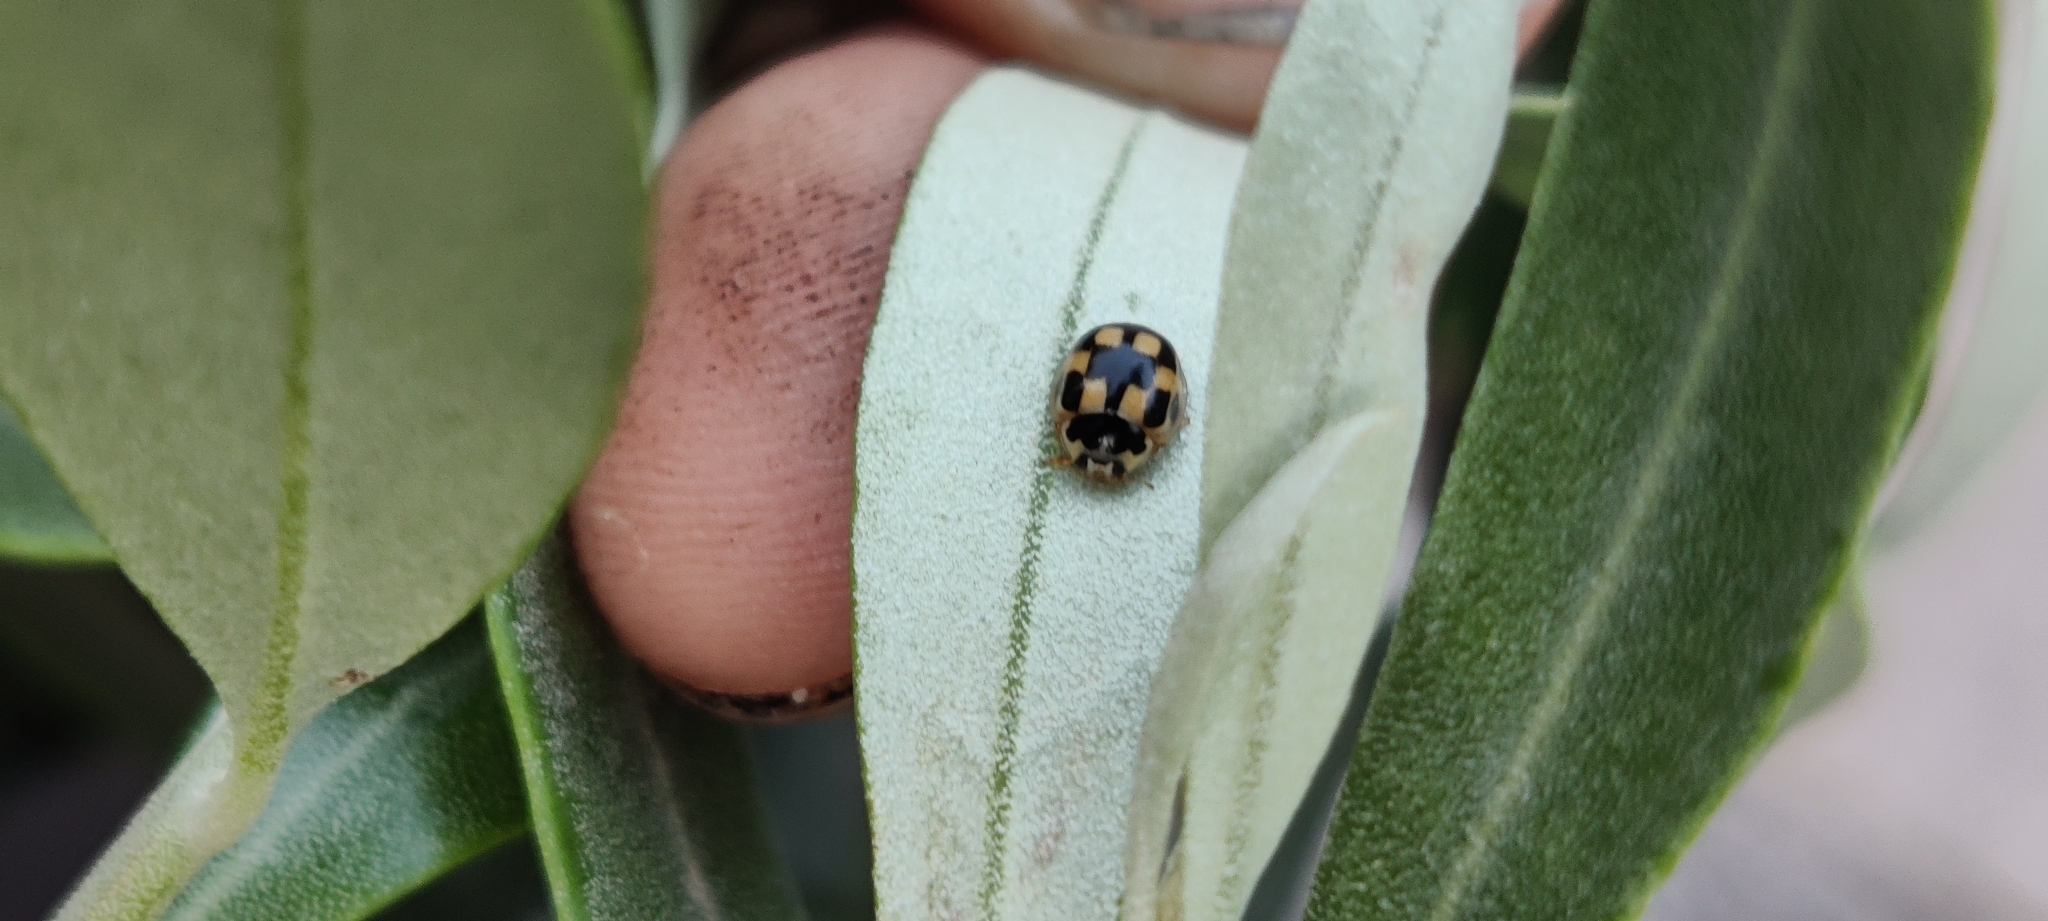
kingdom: Animalia
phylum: Arthropoda
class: Insecta
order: Coleoptera
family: Coccinellidae
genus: Propylaea
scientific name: Propylaea quatuordecimpunctata
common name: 14-spotted ladybird beetle
